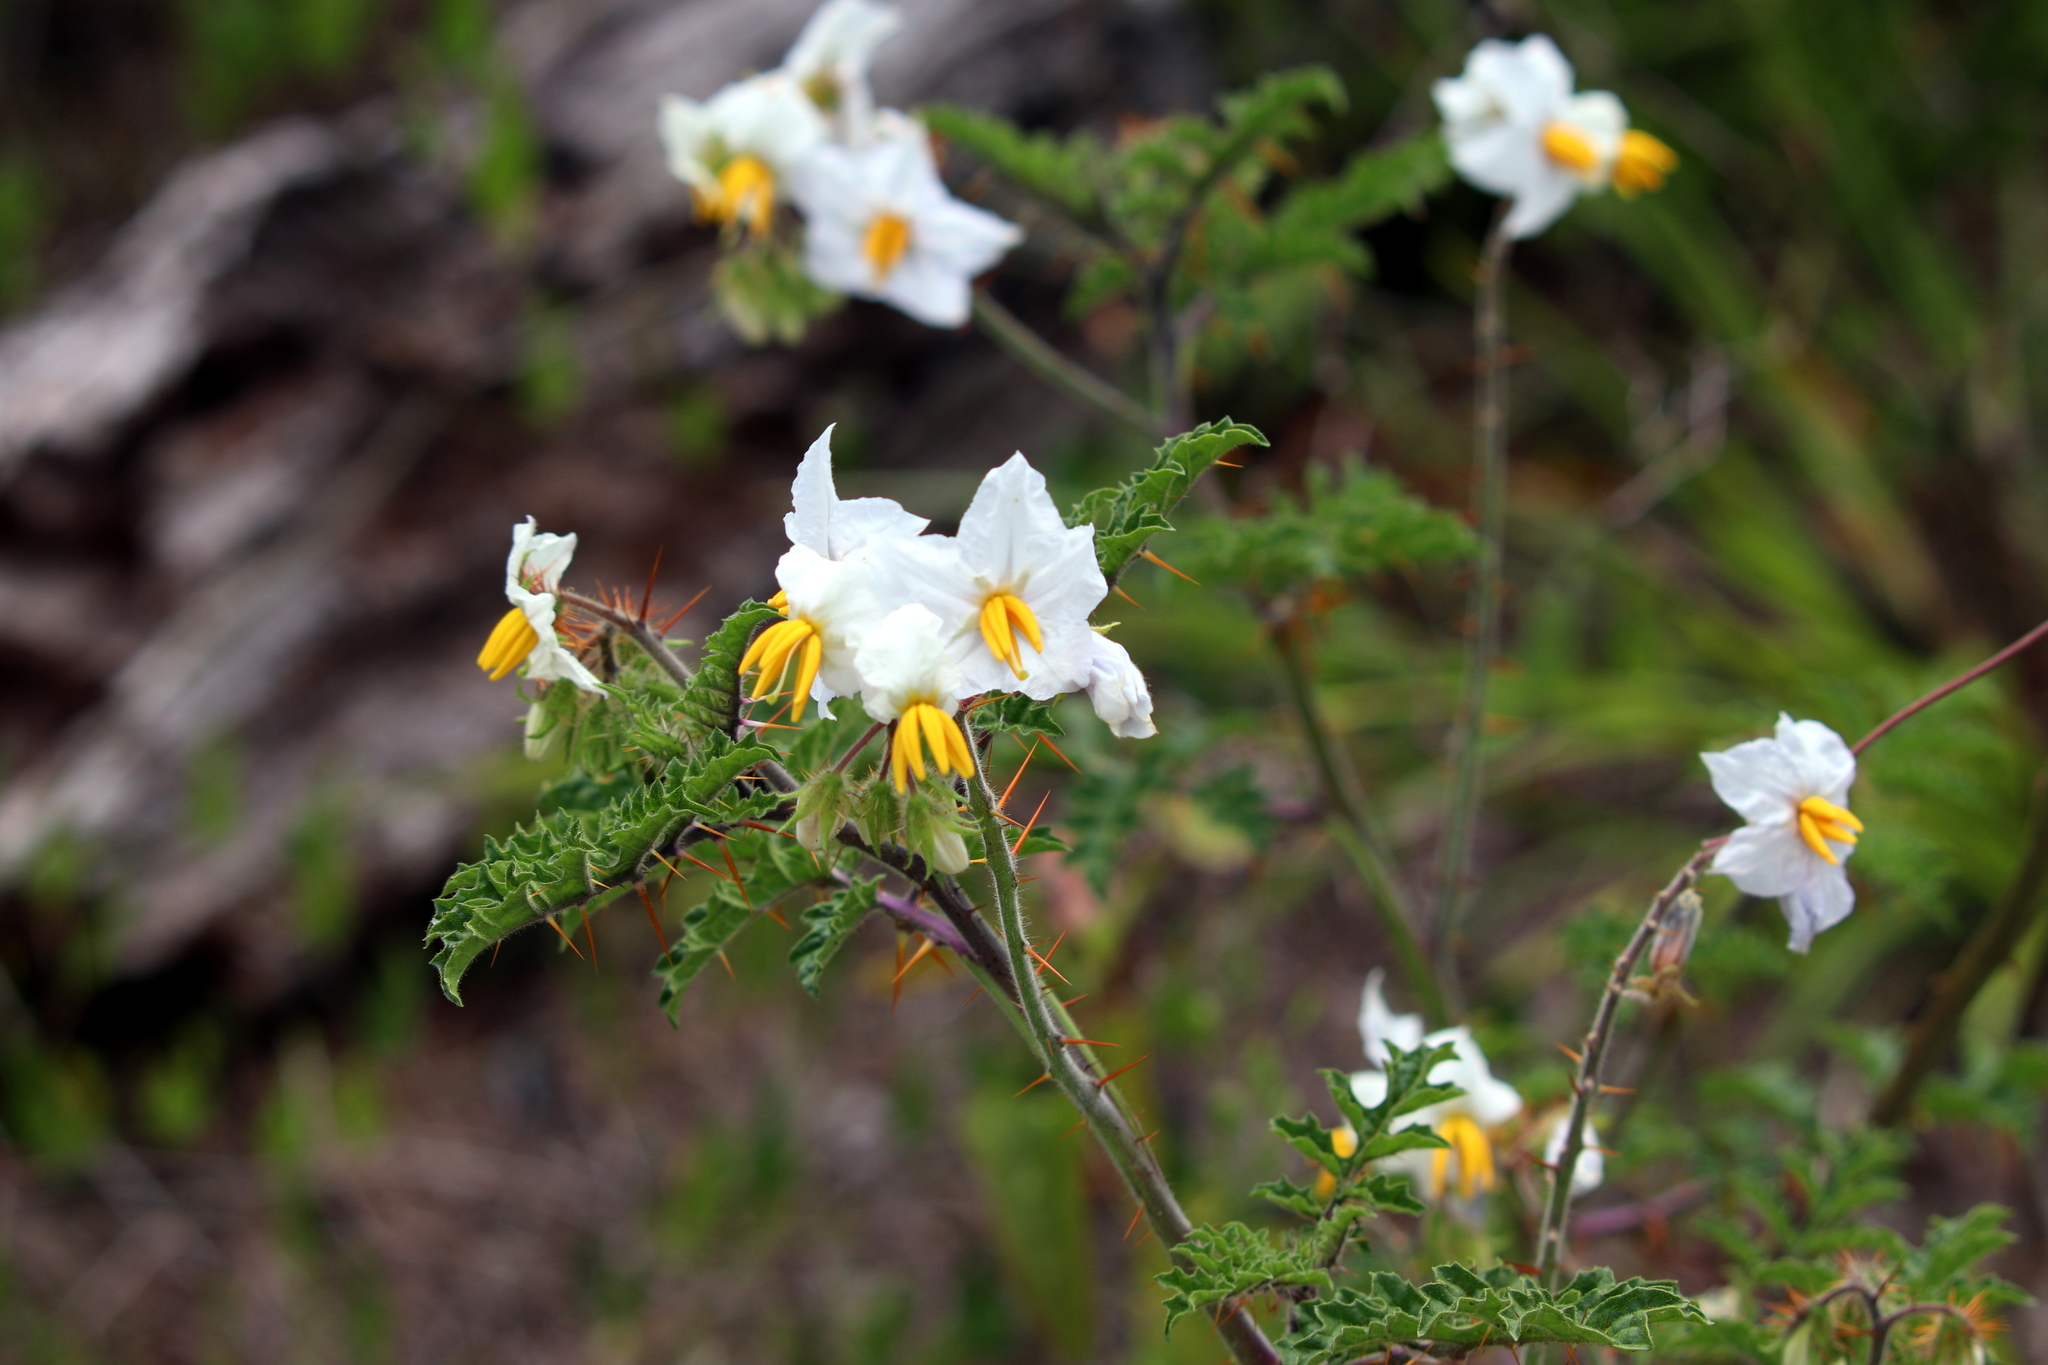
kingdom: Plantae
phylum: Tracheophyta
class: Magnoliopsida
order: Solanales
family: Solanaceae
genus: Solanum
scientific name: Solanum sisymbriifolium
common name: Red buffalo-bur
